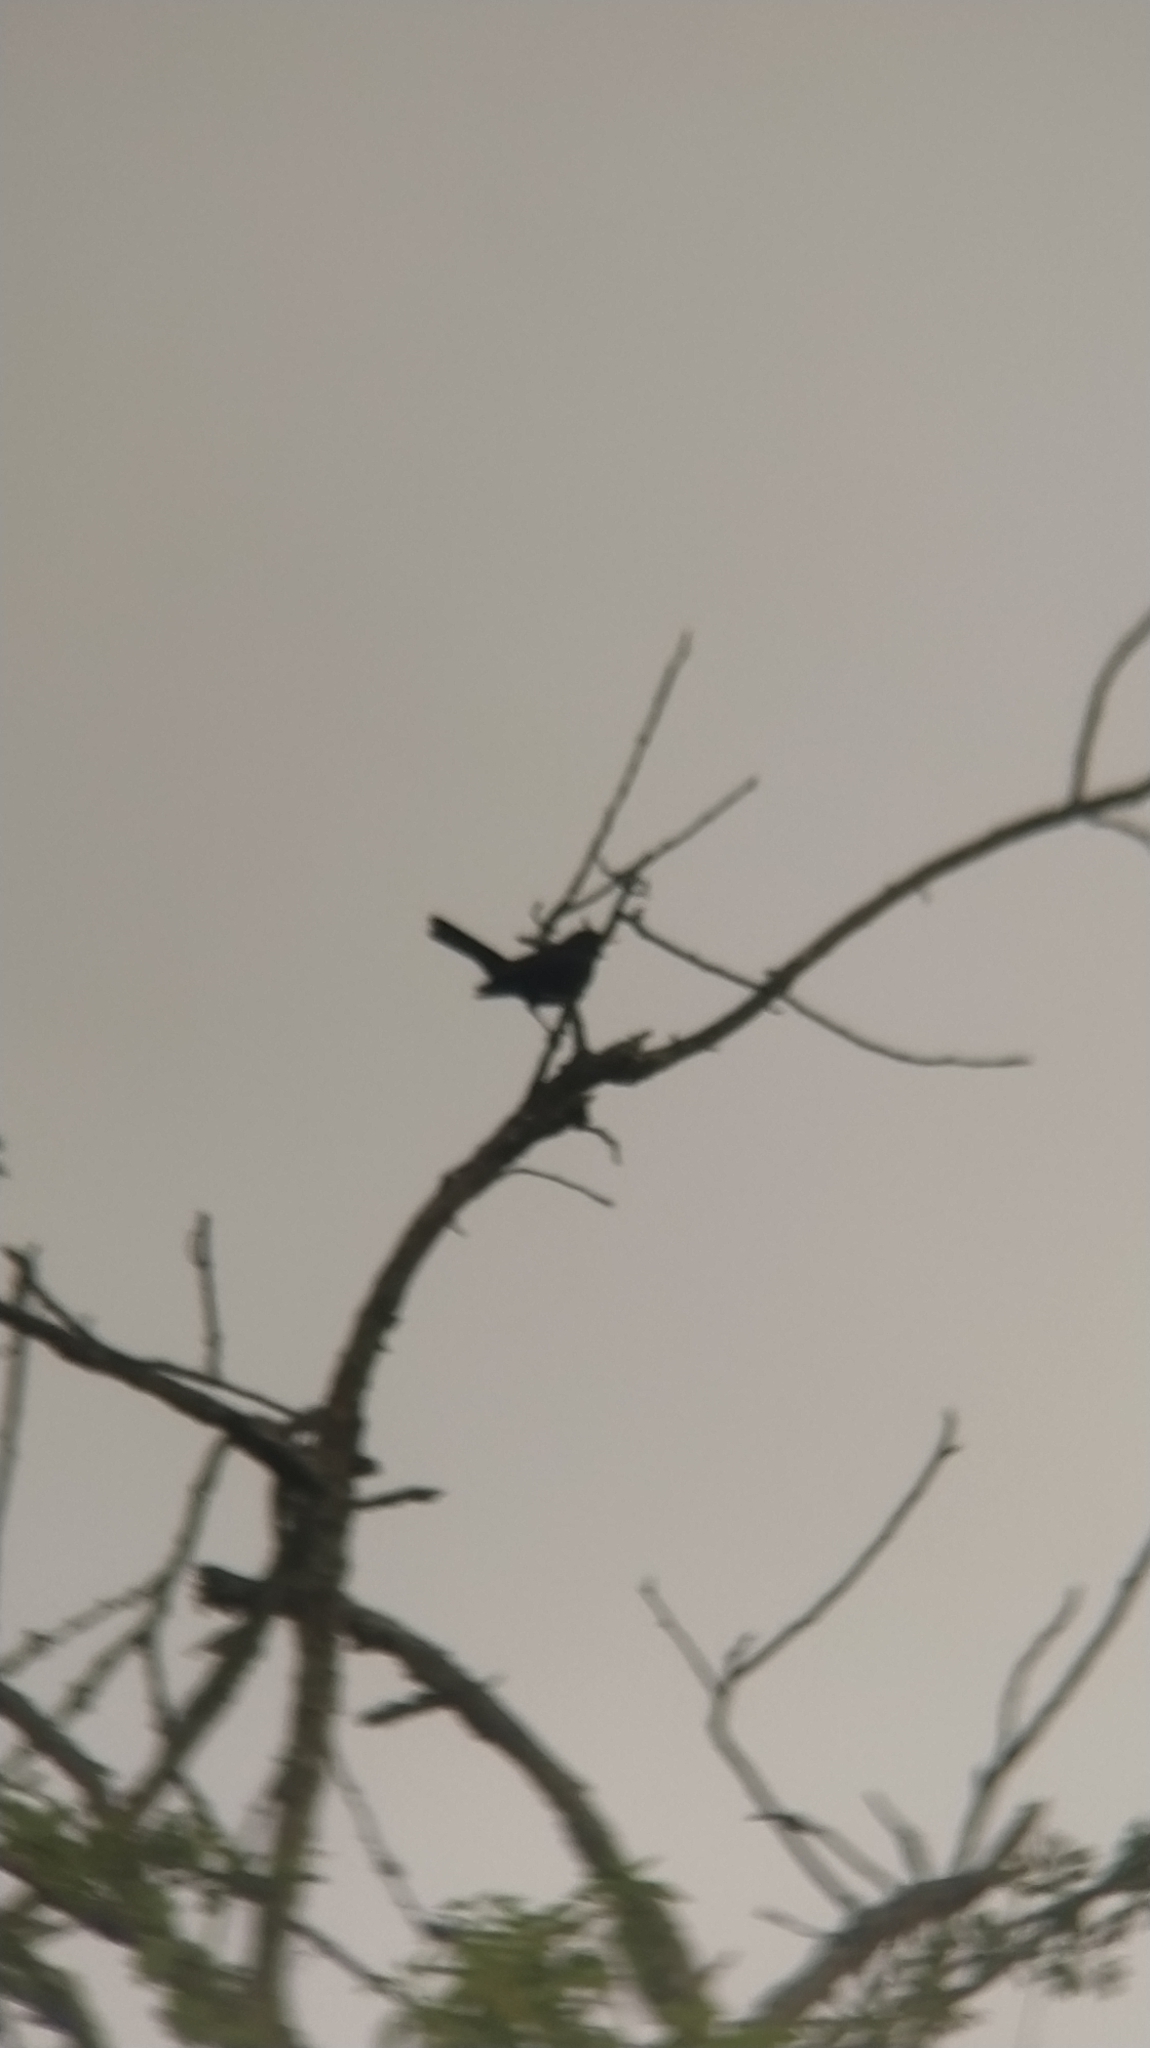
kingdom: Animalia
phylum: Chordata
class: Aves
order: Passeriformes
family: Turdidae
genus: Turdus
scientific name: Turdus merula
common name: Common blackbird
